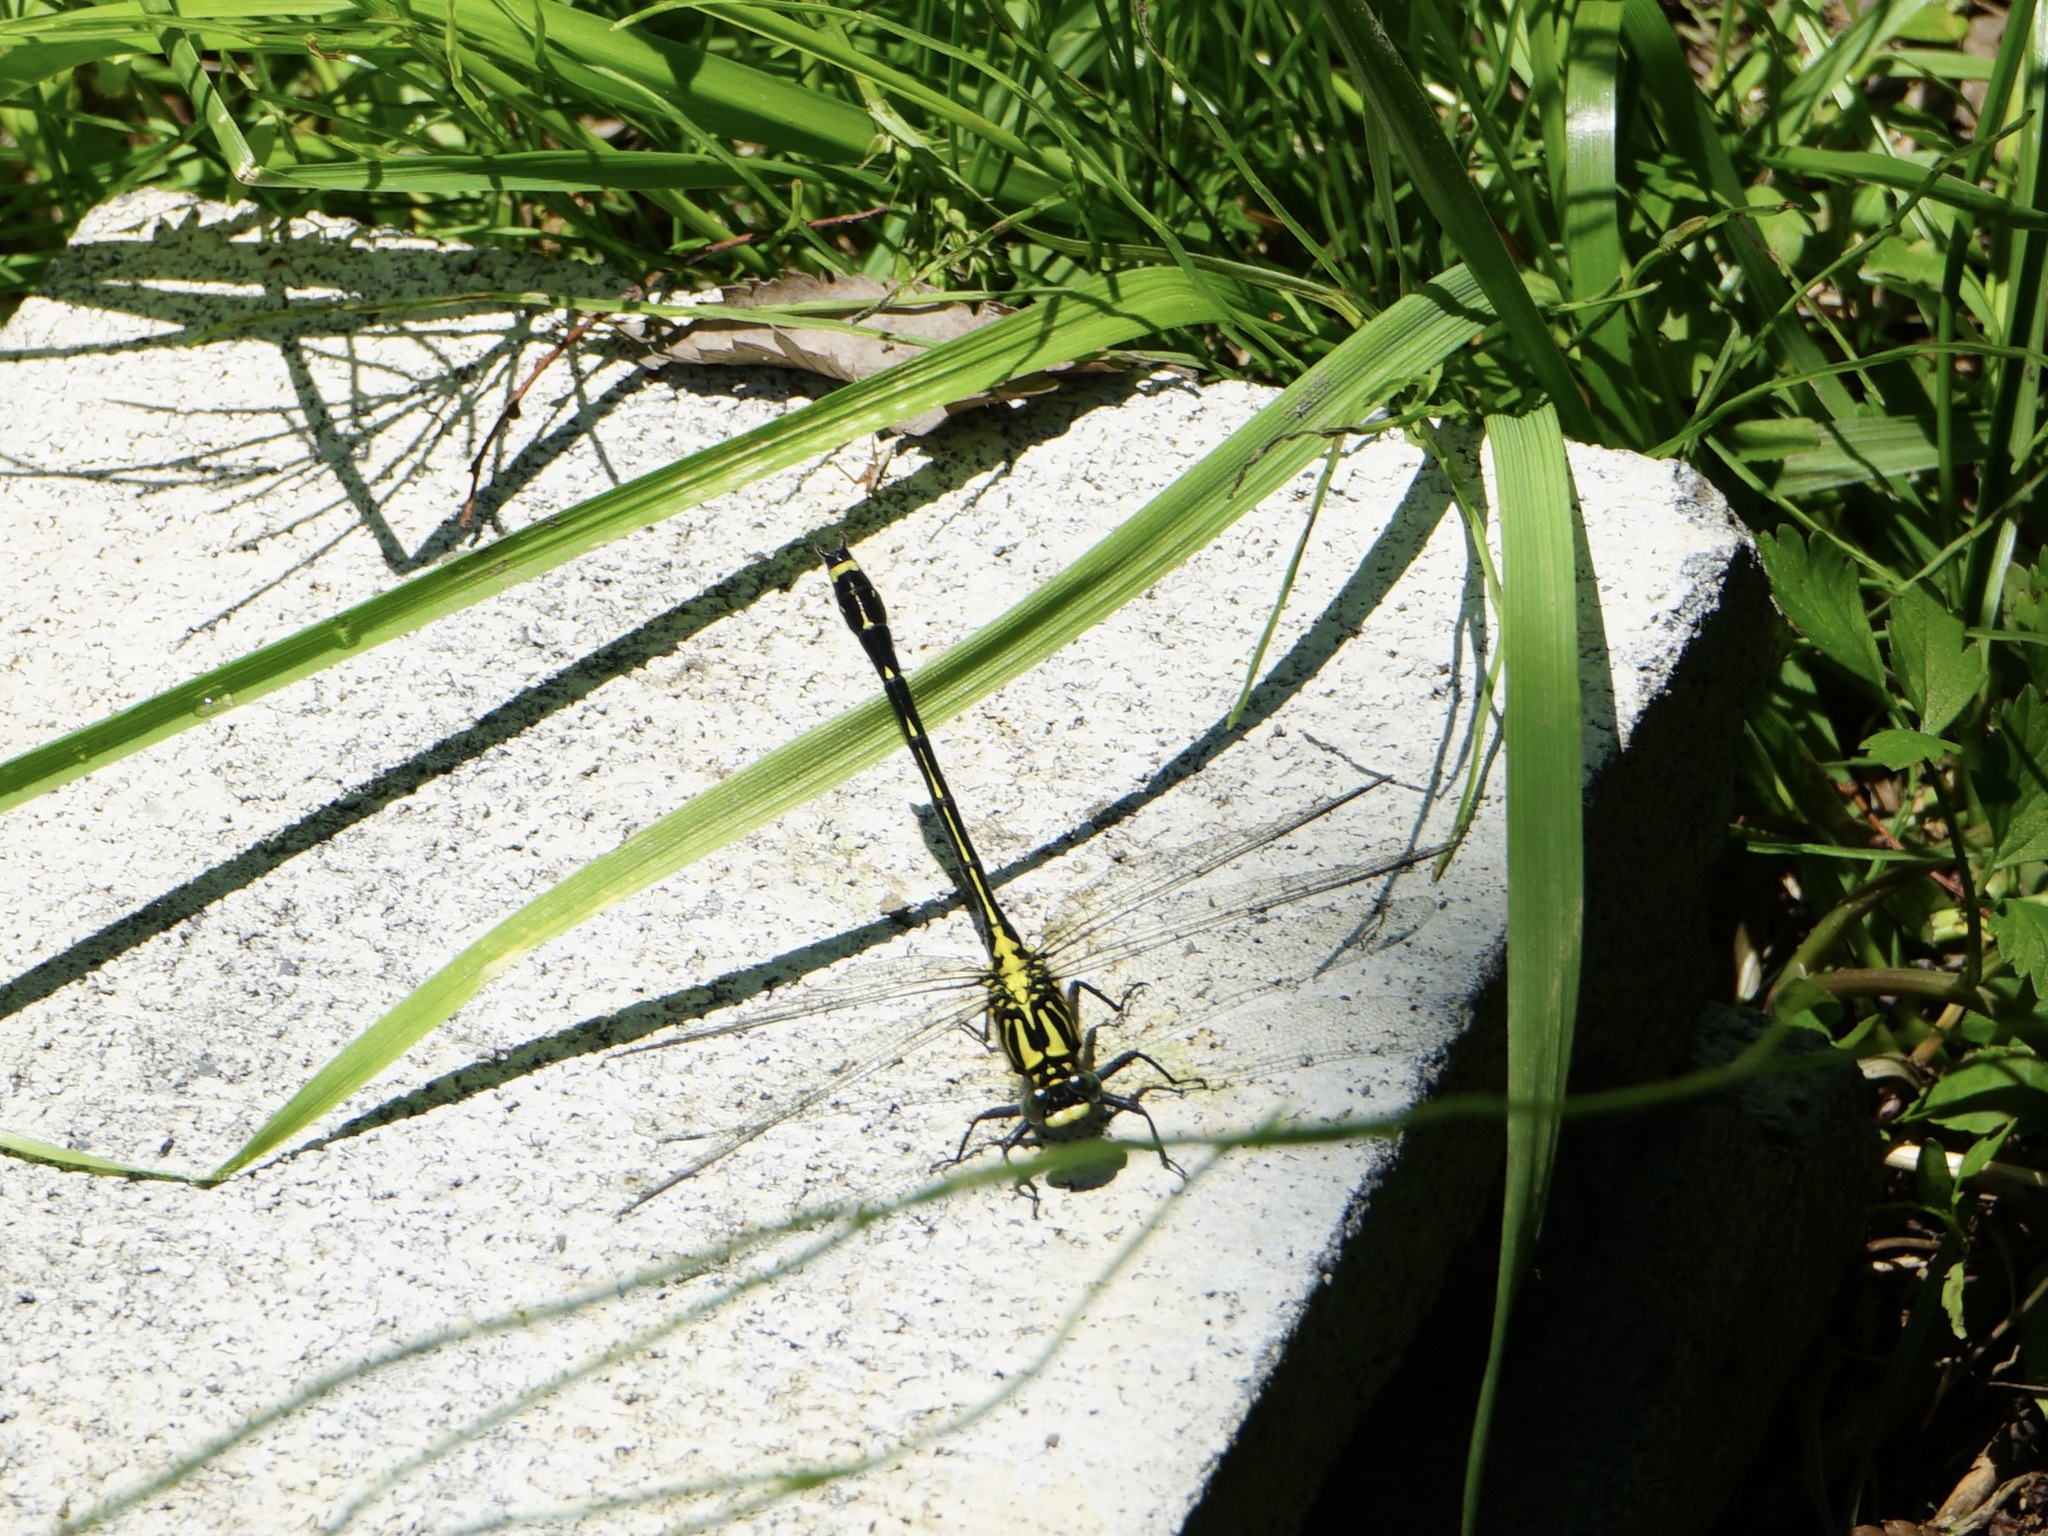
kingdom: Animalia
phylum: Arthropoda
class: Insecta
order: Odonata
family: Gomphidae
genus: Asiagomphus
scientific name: Asiagomphus melaenops
